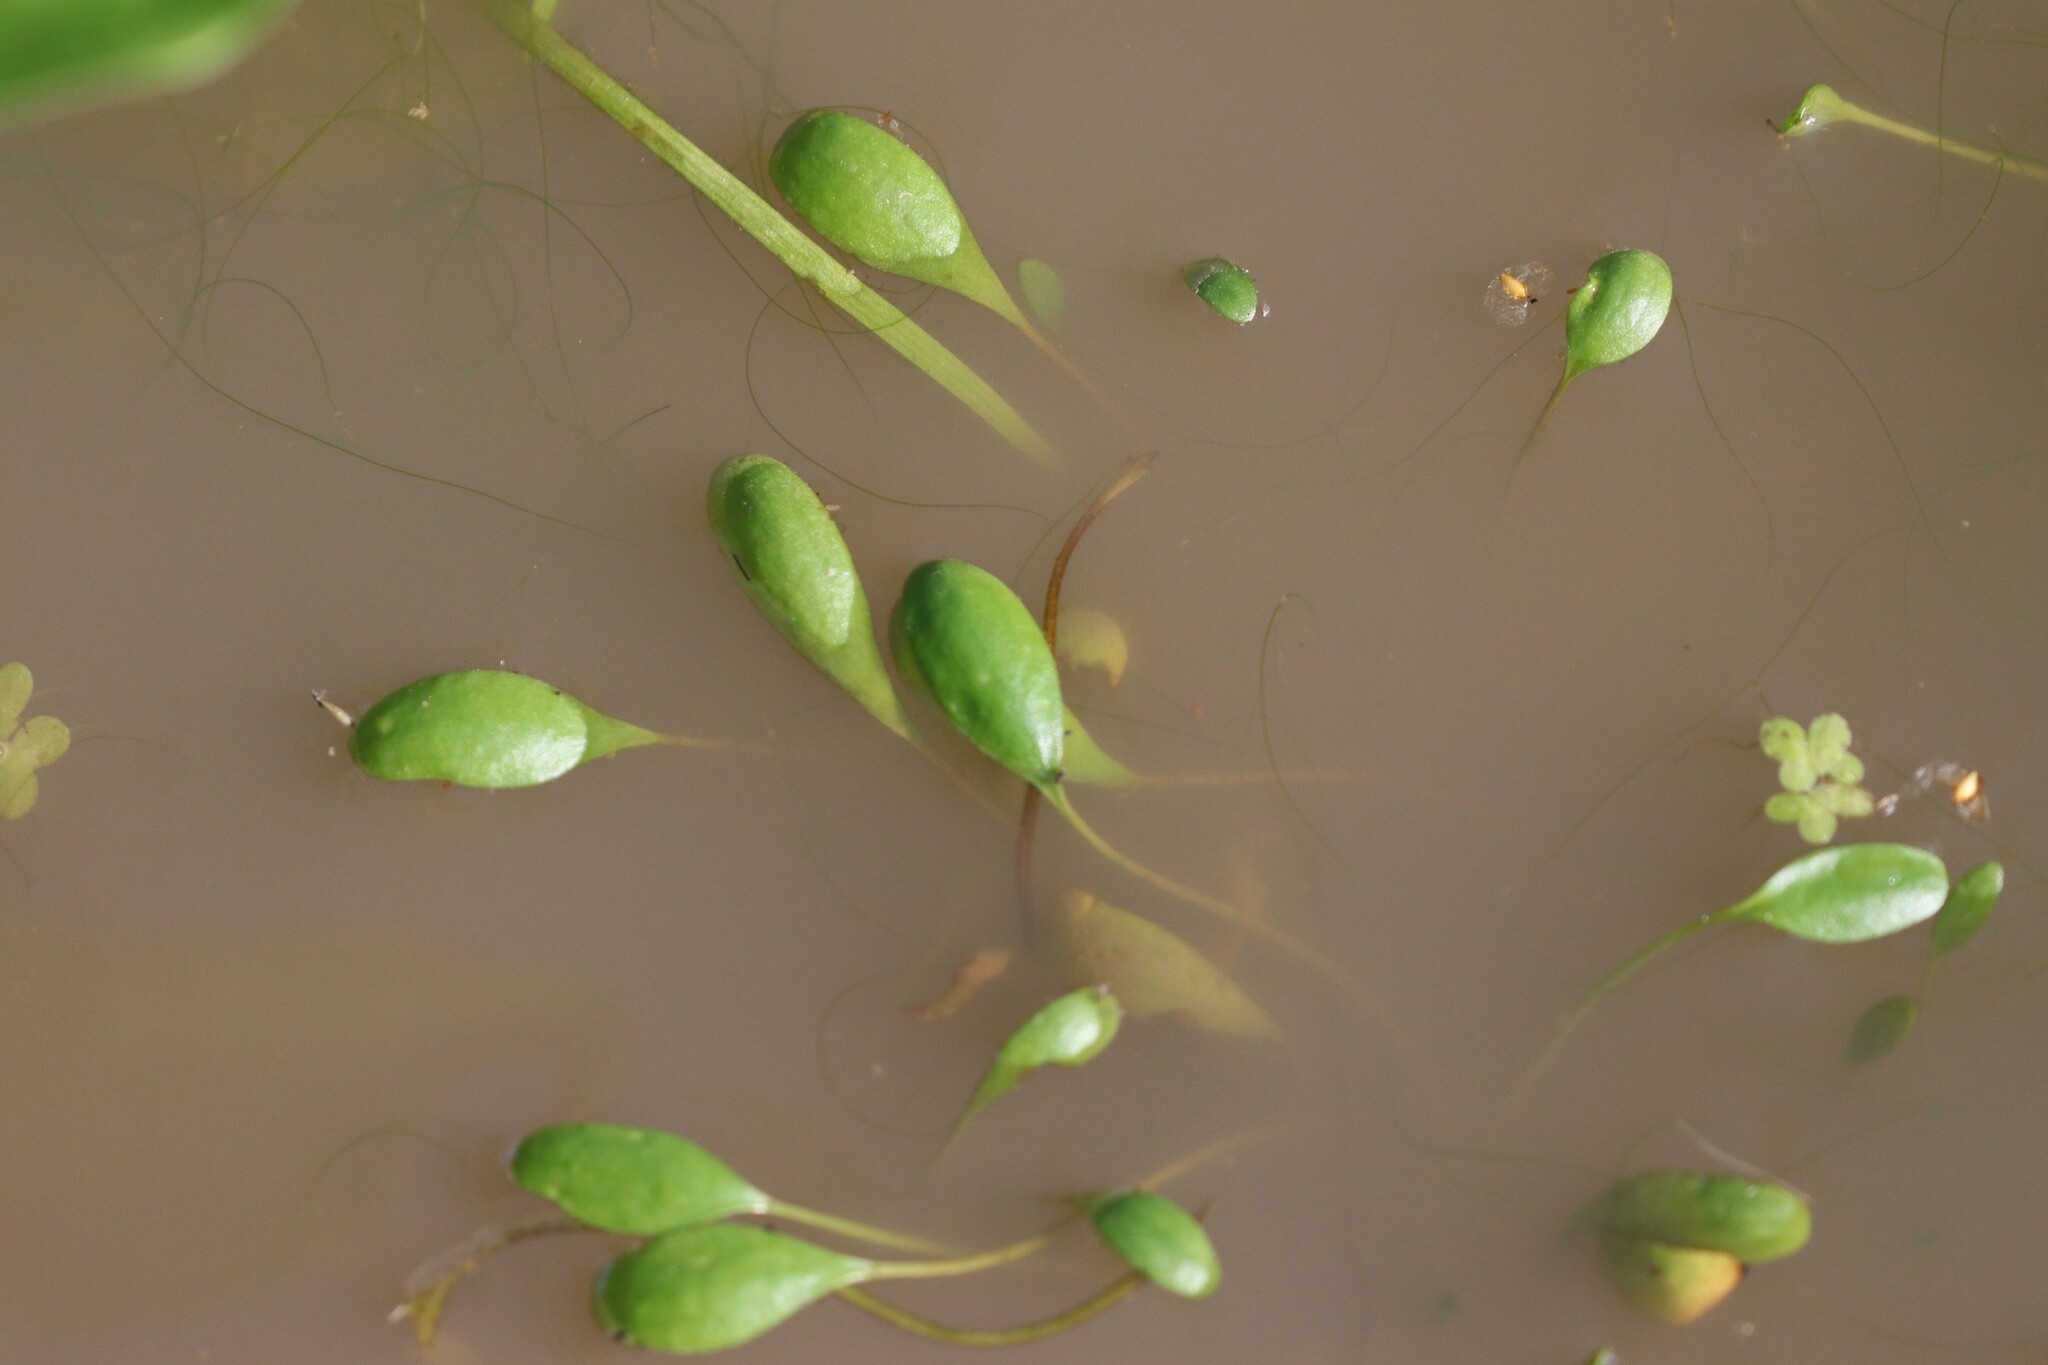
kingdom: Plantae
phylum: Tracheophyta
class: Magnoliopsida
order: Lamiales
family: Scrophulariaceae
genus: Limosella
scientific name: Limosella aquatica
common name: Mudwort
